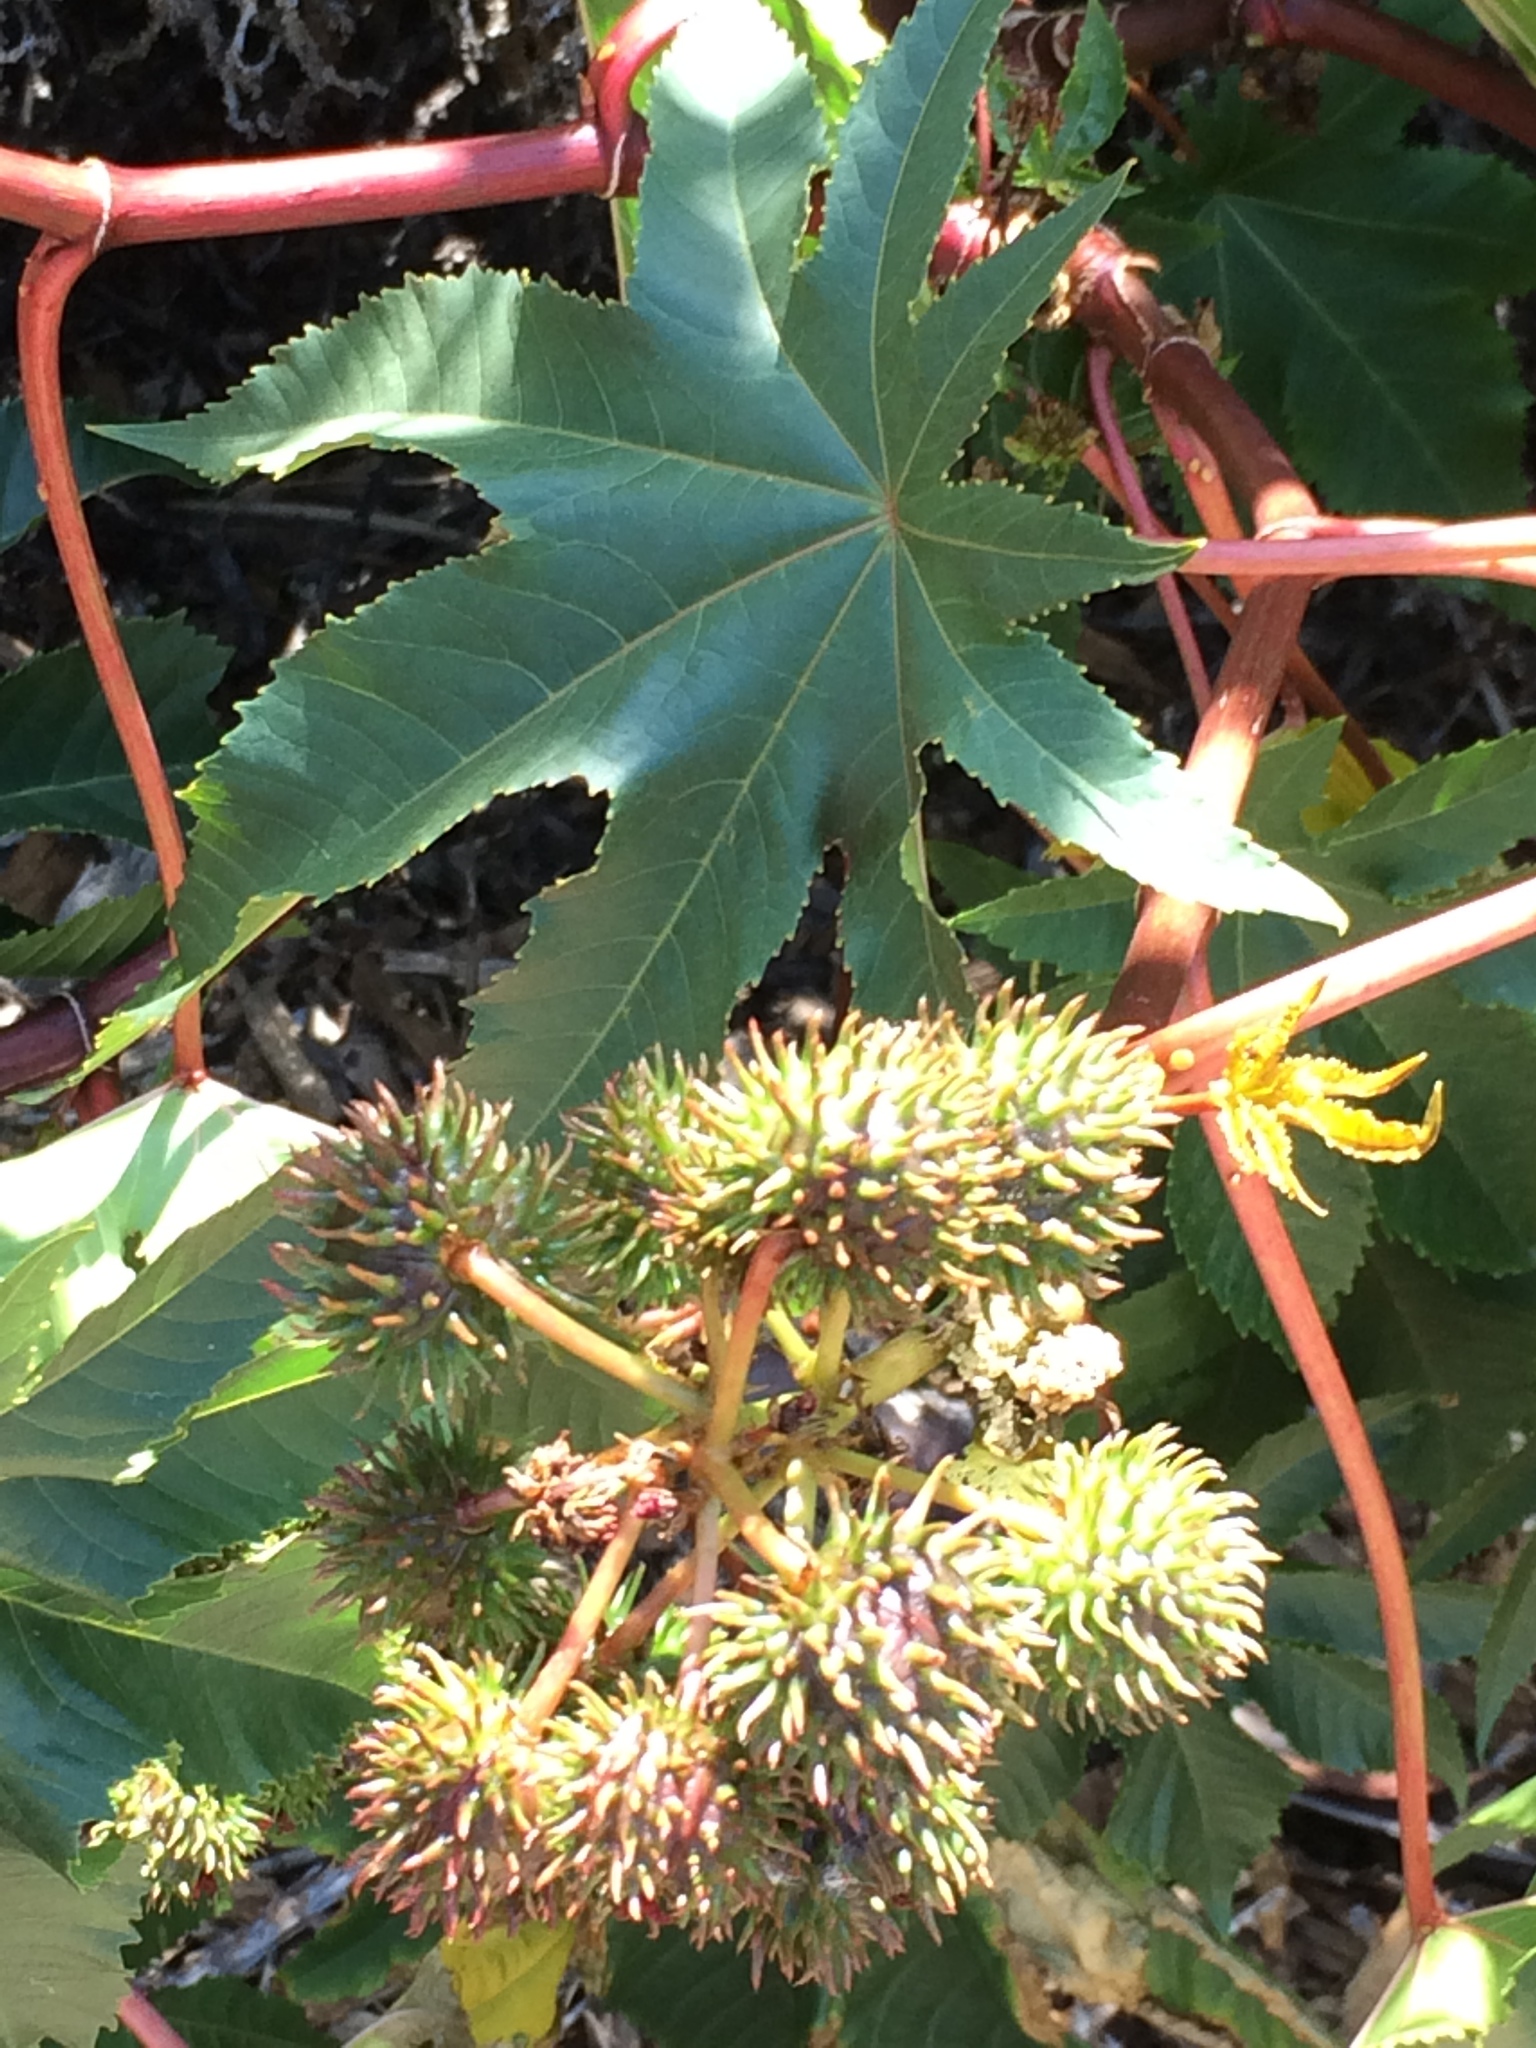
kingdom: Plantae
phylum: Tracheophyta
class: Magnoliopsida
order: Malpighiales
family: Euphorbiaceae
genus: Ricinus
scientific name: Ricinus communis
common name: Castor-oil-plant
